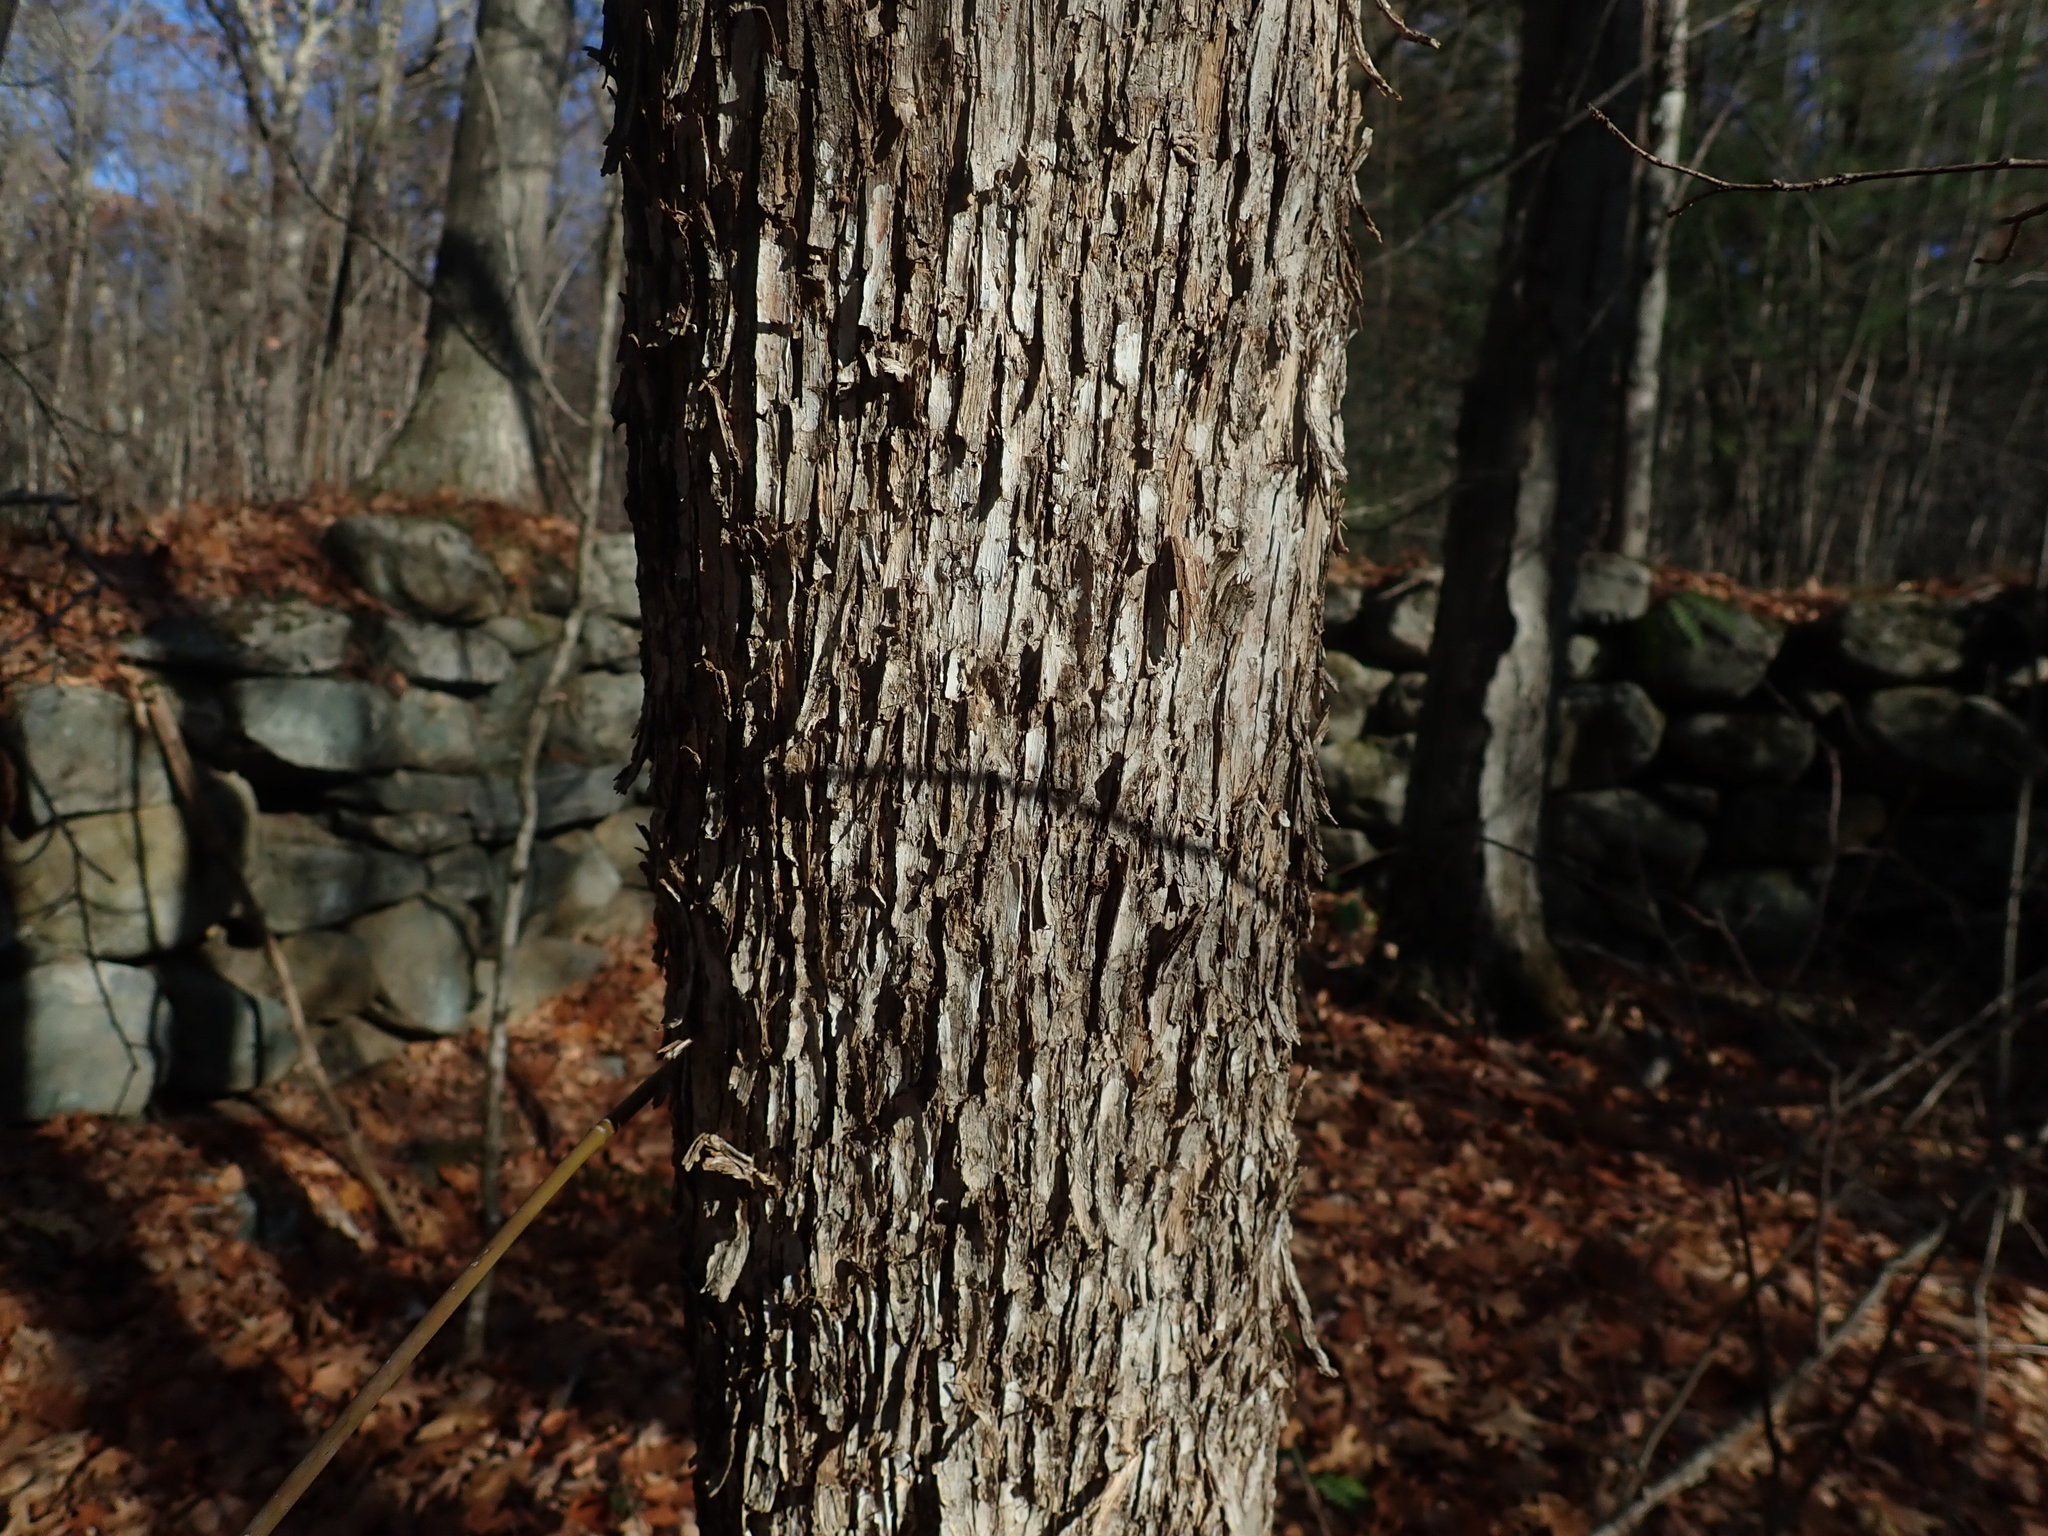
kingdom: Plantae
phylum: Tracheophyta
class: Magnoliopsida
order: Fagales
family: Betulaceae
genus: Ostrya
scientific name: Ostrya virginiana
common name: Ironwood
